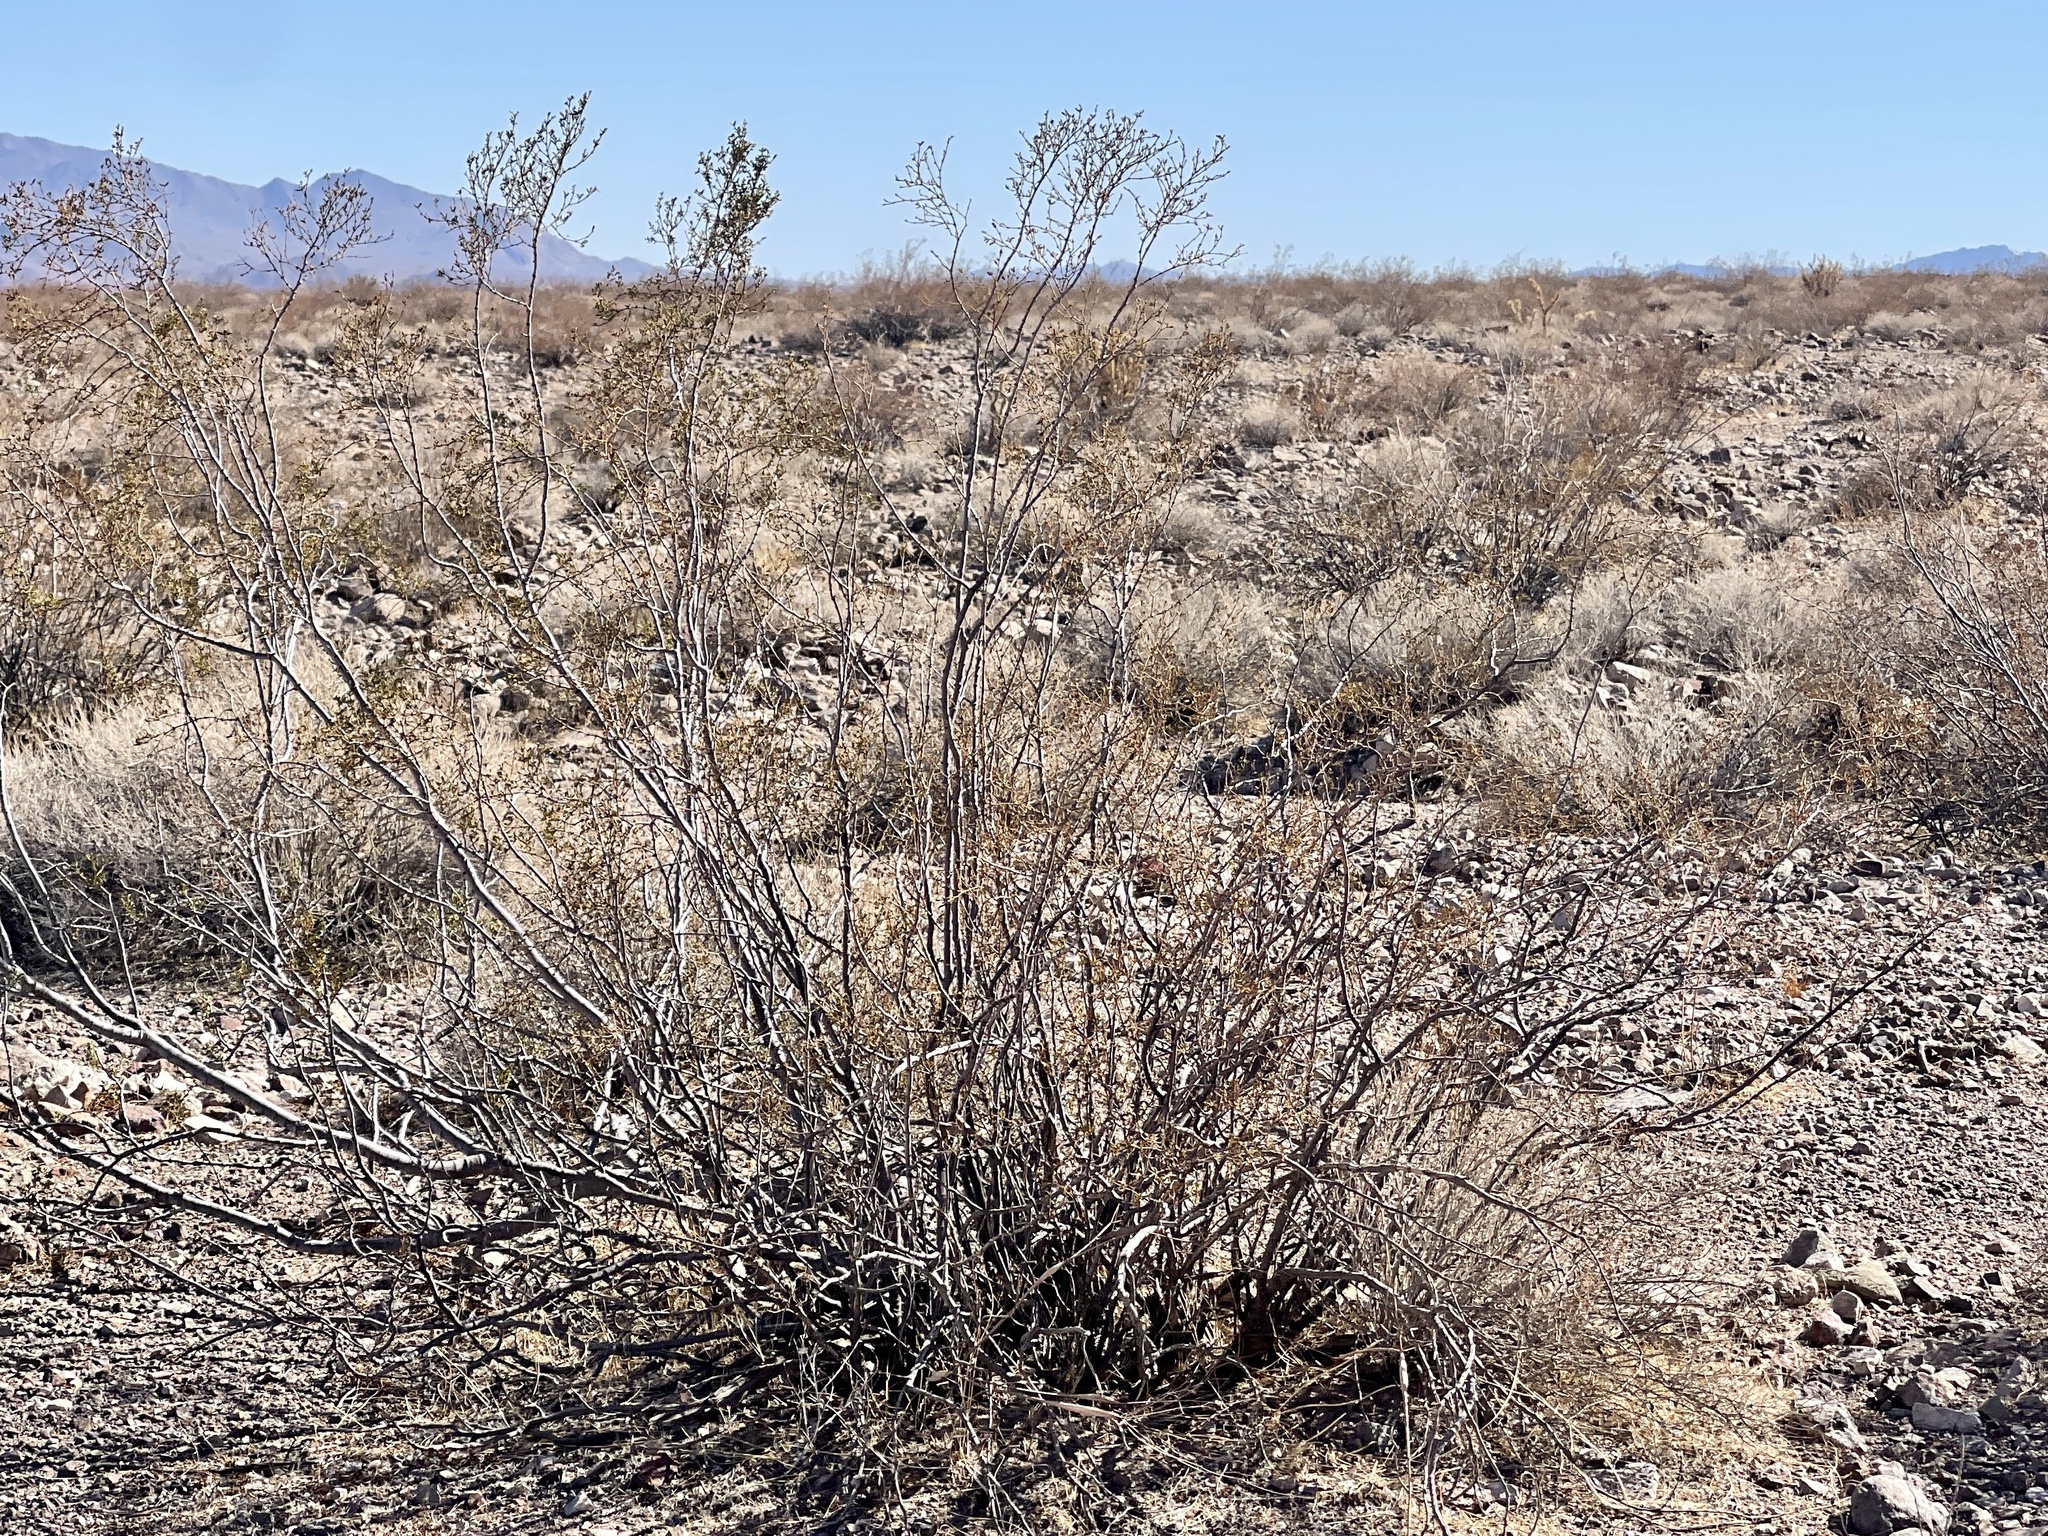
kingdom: Plantae
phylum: Tracheophyta
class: Magnoliopsida
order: Zygophyllales
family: Zygophyllaceae
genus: Larrea
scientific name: Larrea tridentata
